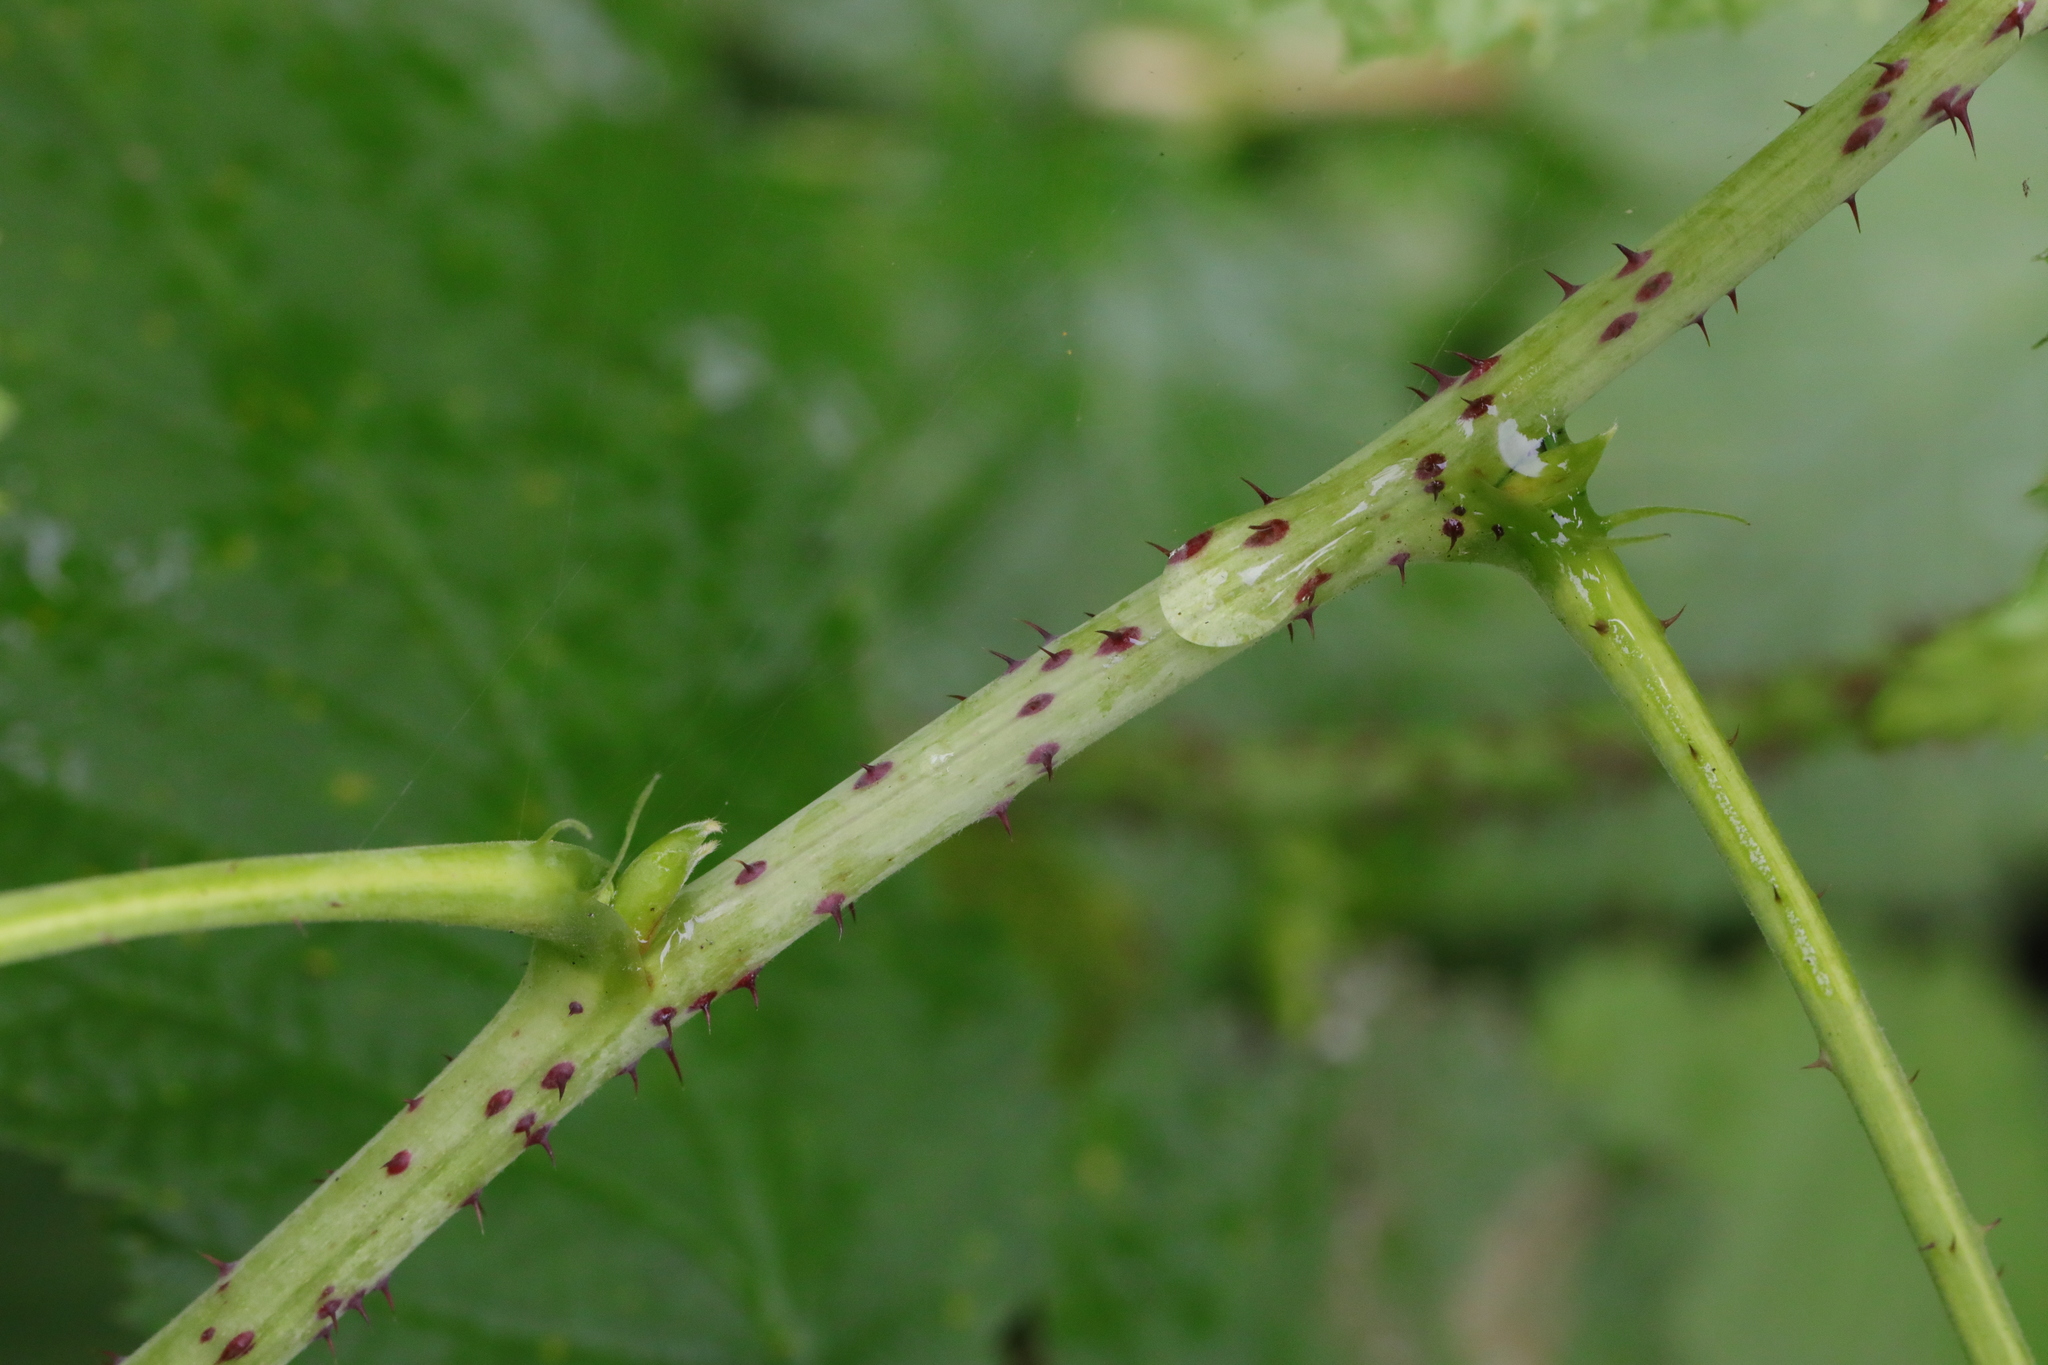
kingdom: Plantae
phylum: Tracheophyta
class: Magnoliopsida
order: Rosales
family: Rosaceae
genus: Rubus
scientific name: Rubus idaeus
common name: Raspberry
